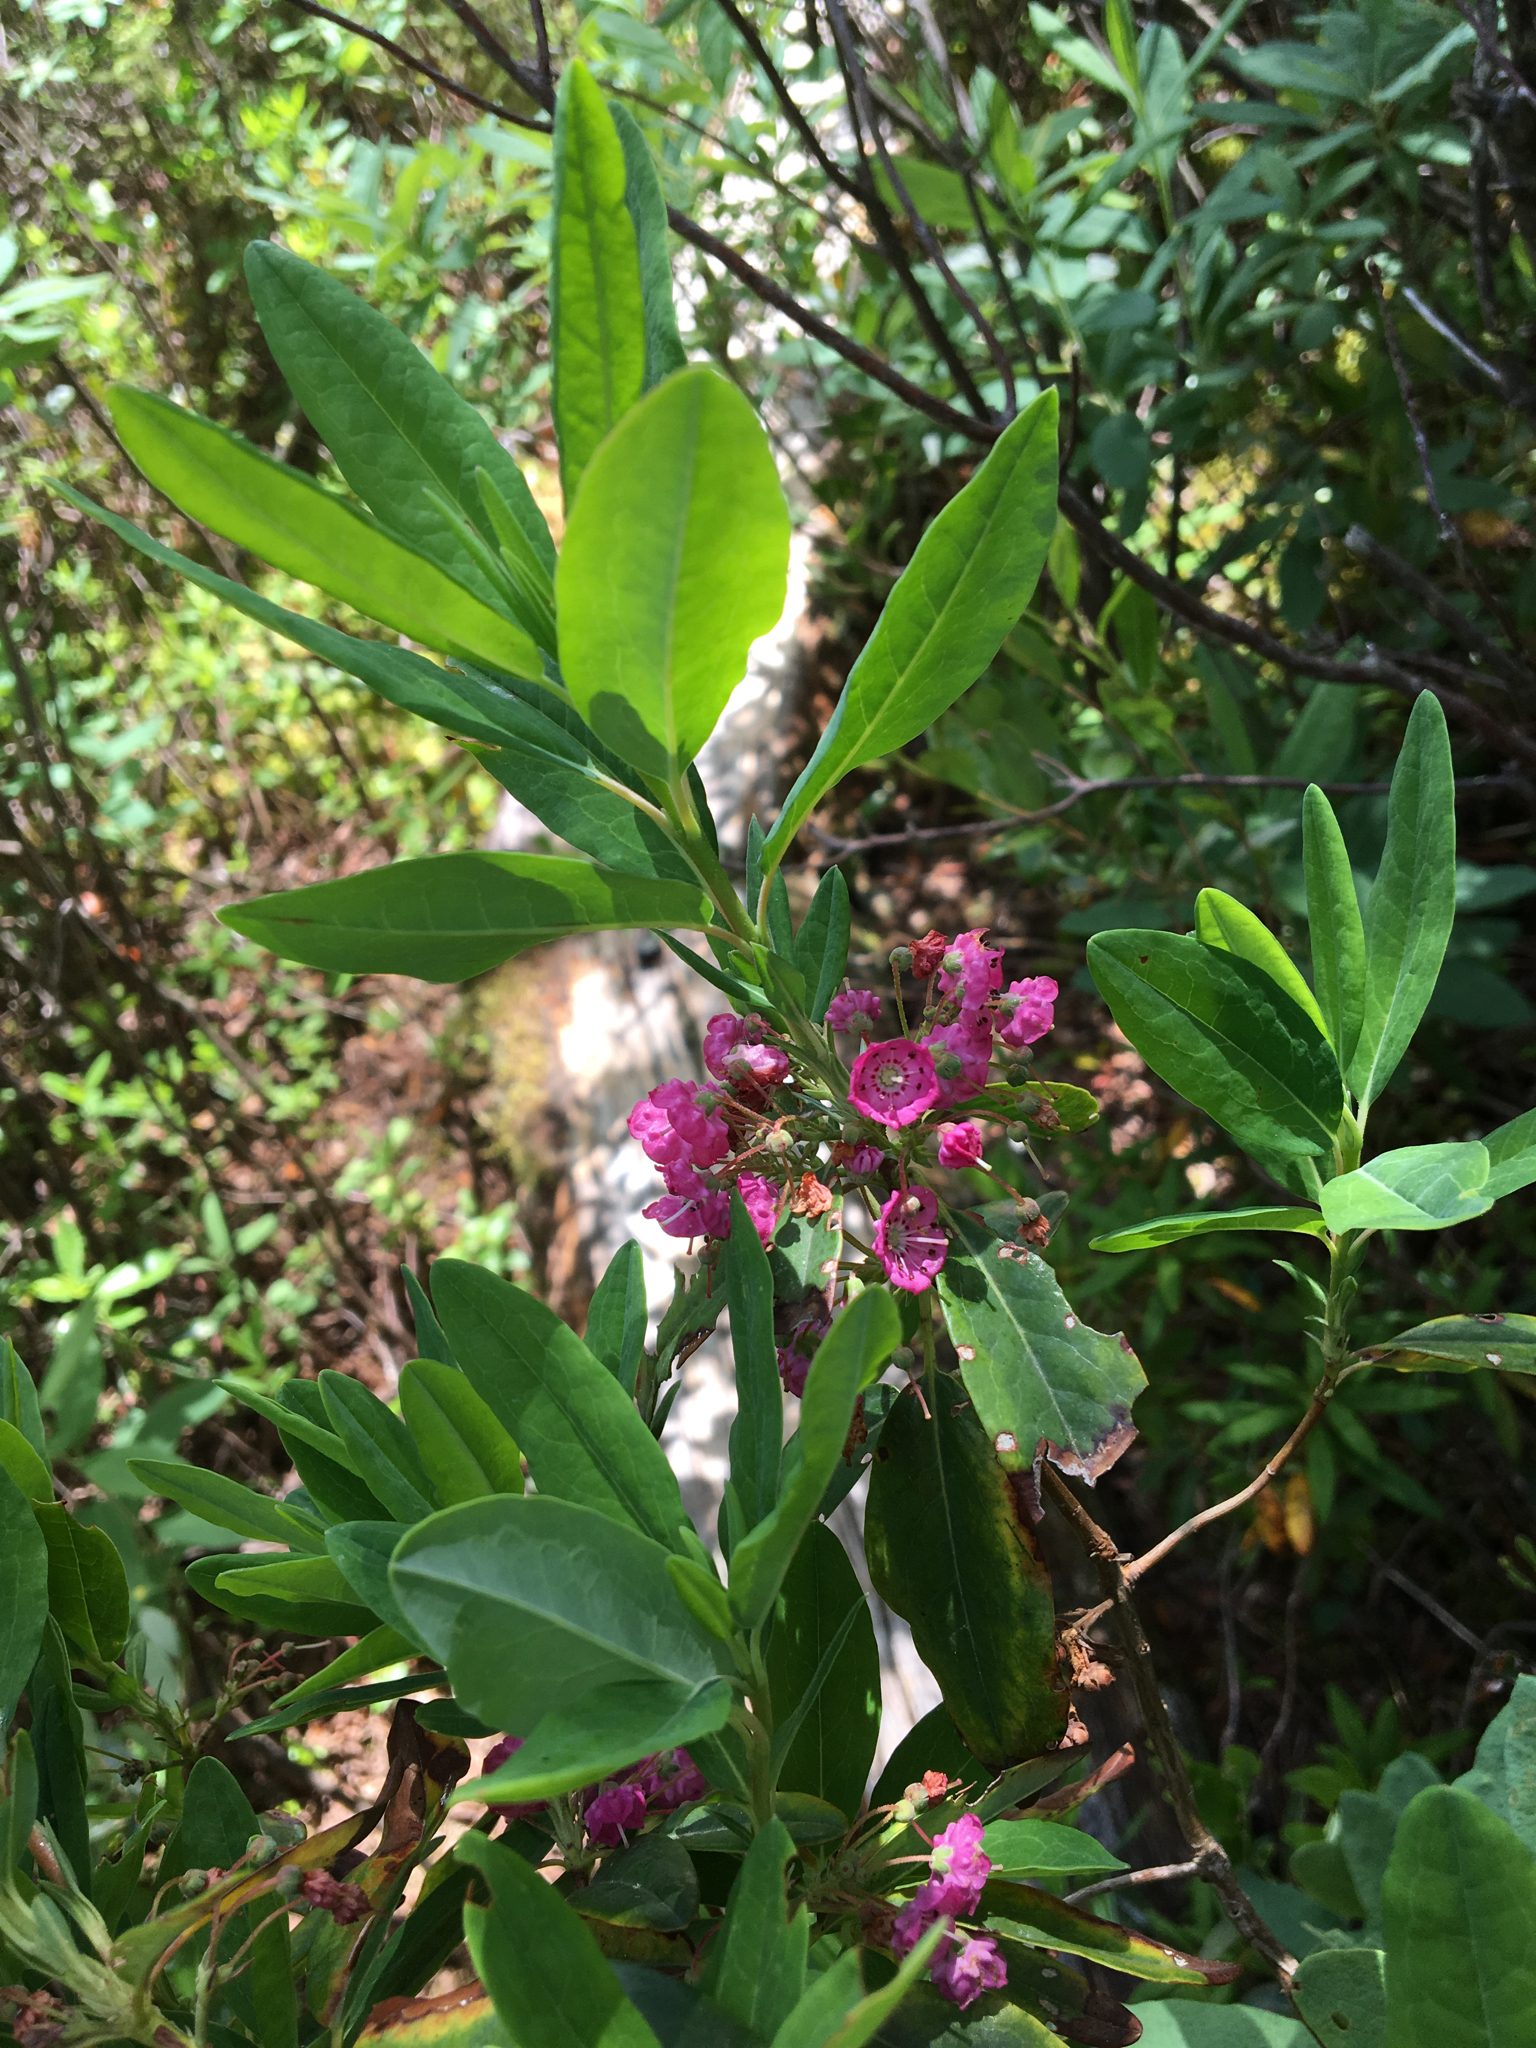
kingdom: Plantae
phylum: Tracheophyta
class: Magnoliopsida
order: Ericales
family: Ericaceae
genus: Kalmia
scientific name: Kalmia angustifolia
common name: Sheep-laurel
